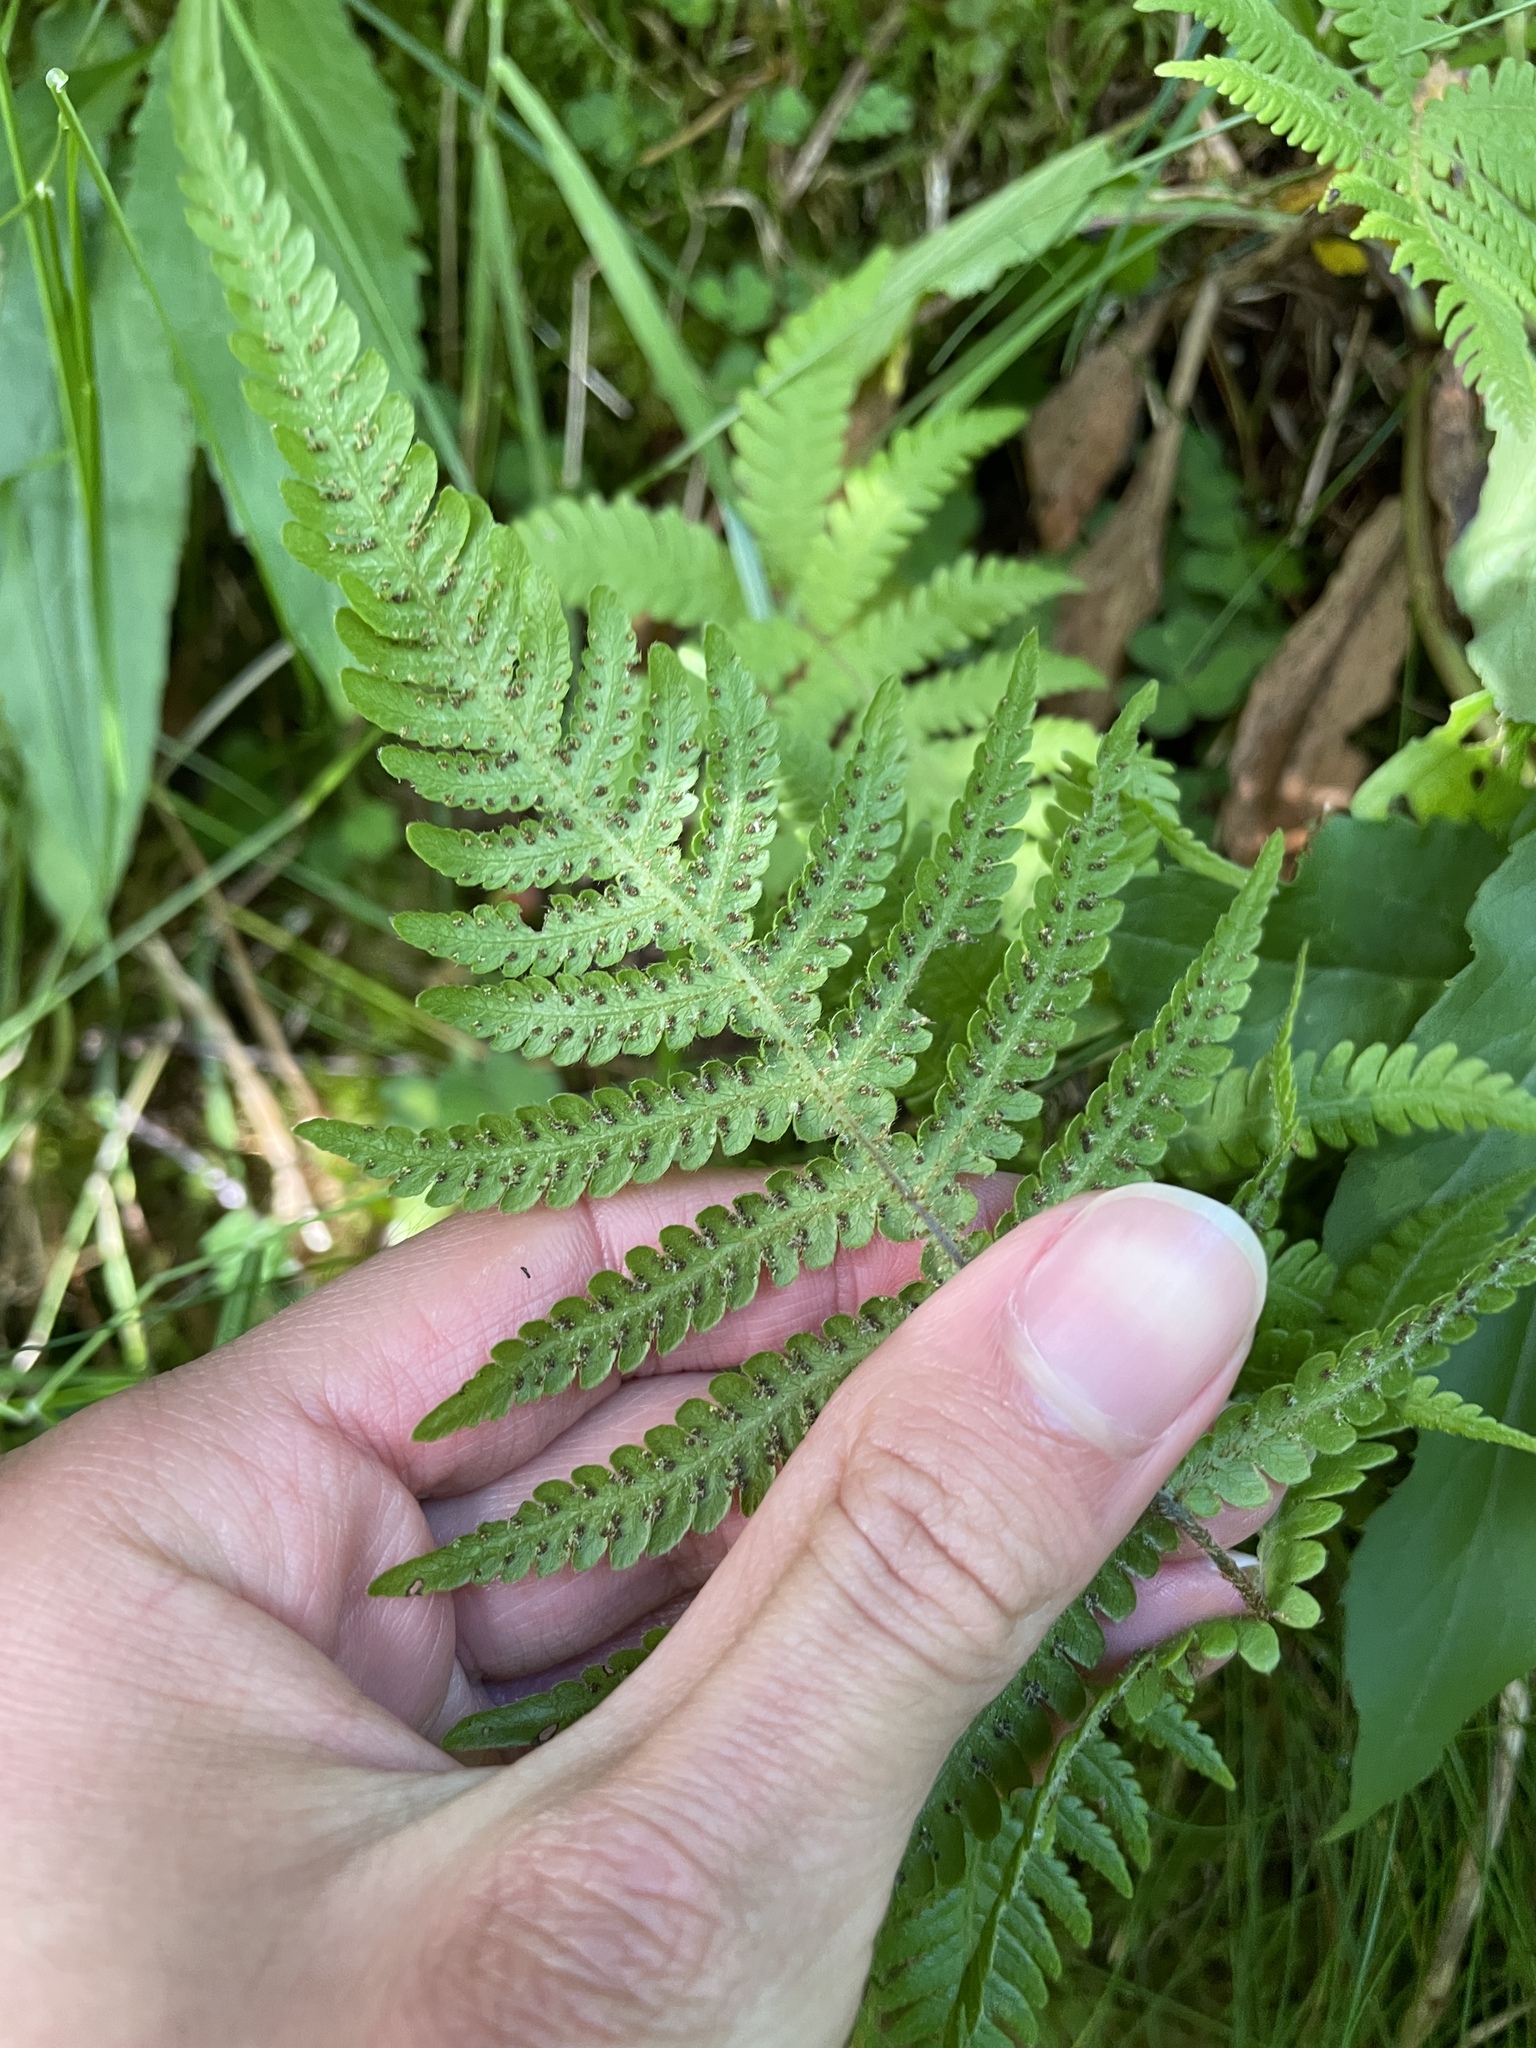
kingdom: Plantae
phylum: Tracheophyta
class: Polypodiopsida
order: Polypodiales
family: Thelypteridaceae
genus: Phegopteris
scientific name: Phegopteris connectilis
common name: Beech fern
